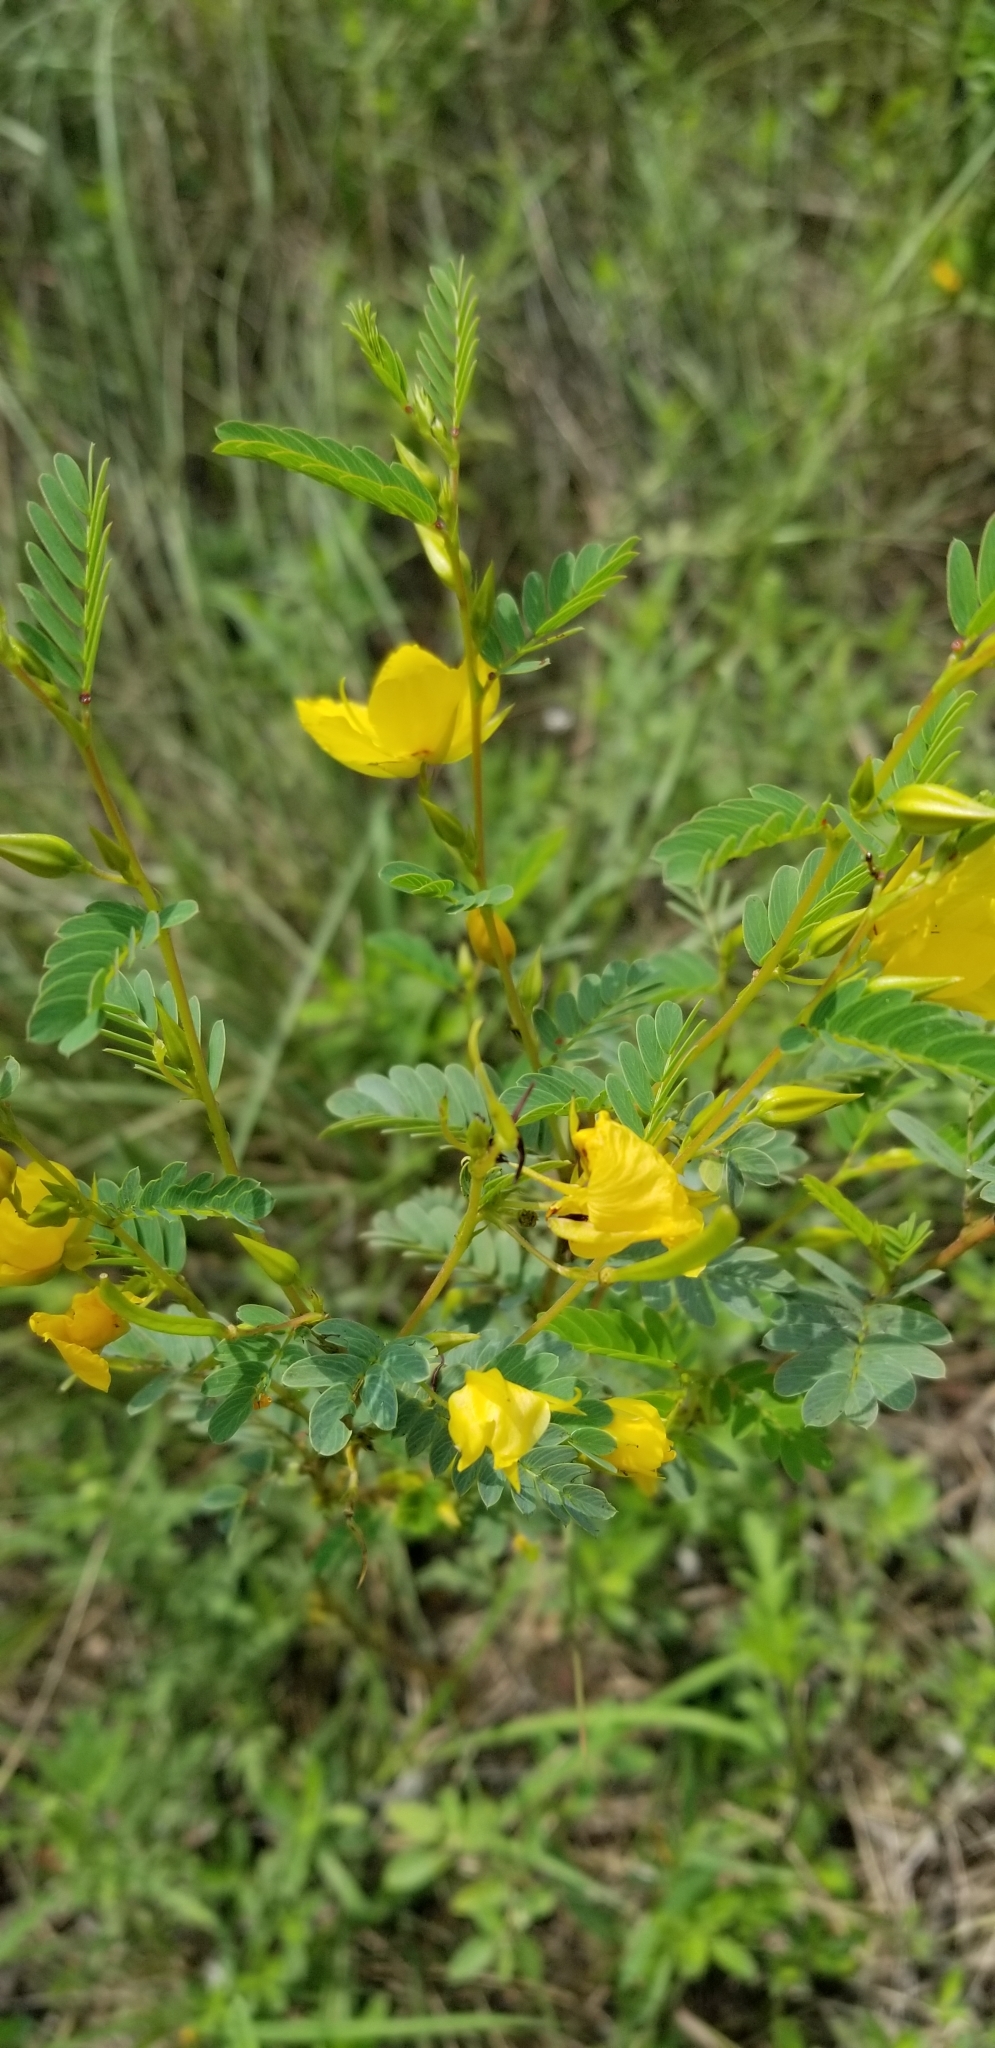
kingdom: Plantae
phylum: Tracheophyta
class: Magnoliopsida
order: Fabales
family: Fabaceae
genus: Chamaecrista
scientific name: Chamaecrista fasciculata
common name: Golden cassia
